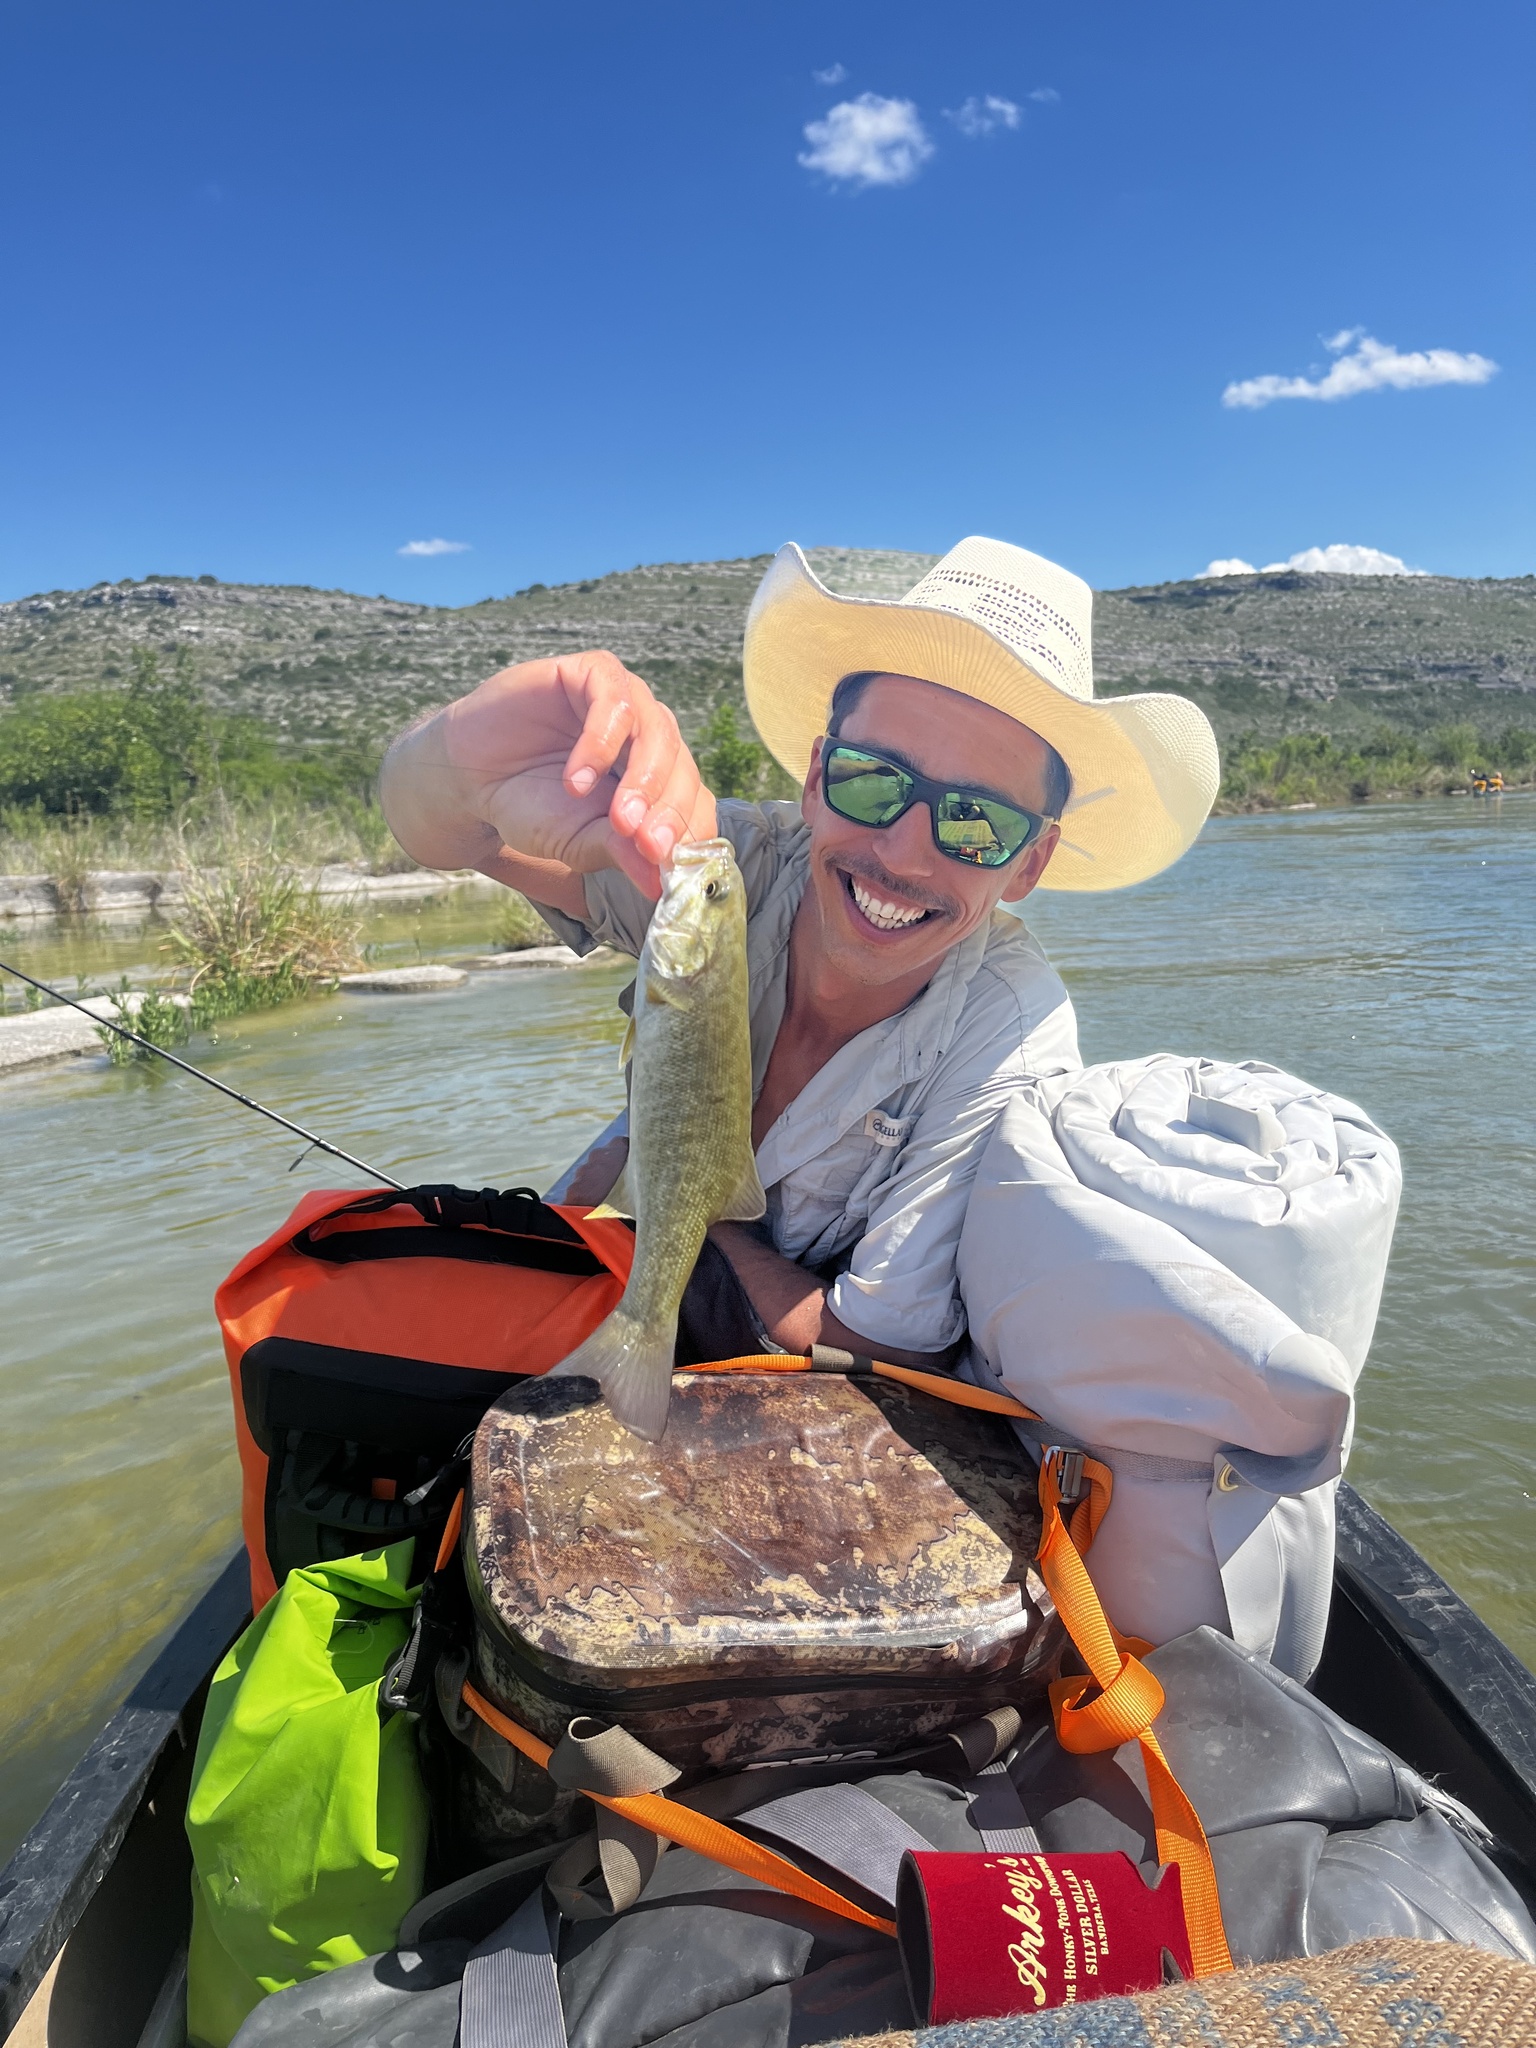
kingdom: Animalia
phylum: Chordata
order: Perciformes
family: Centrarchidae
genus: Micropterus
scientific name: Micropterus dolomieu
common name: Smallmouth bass
